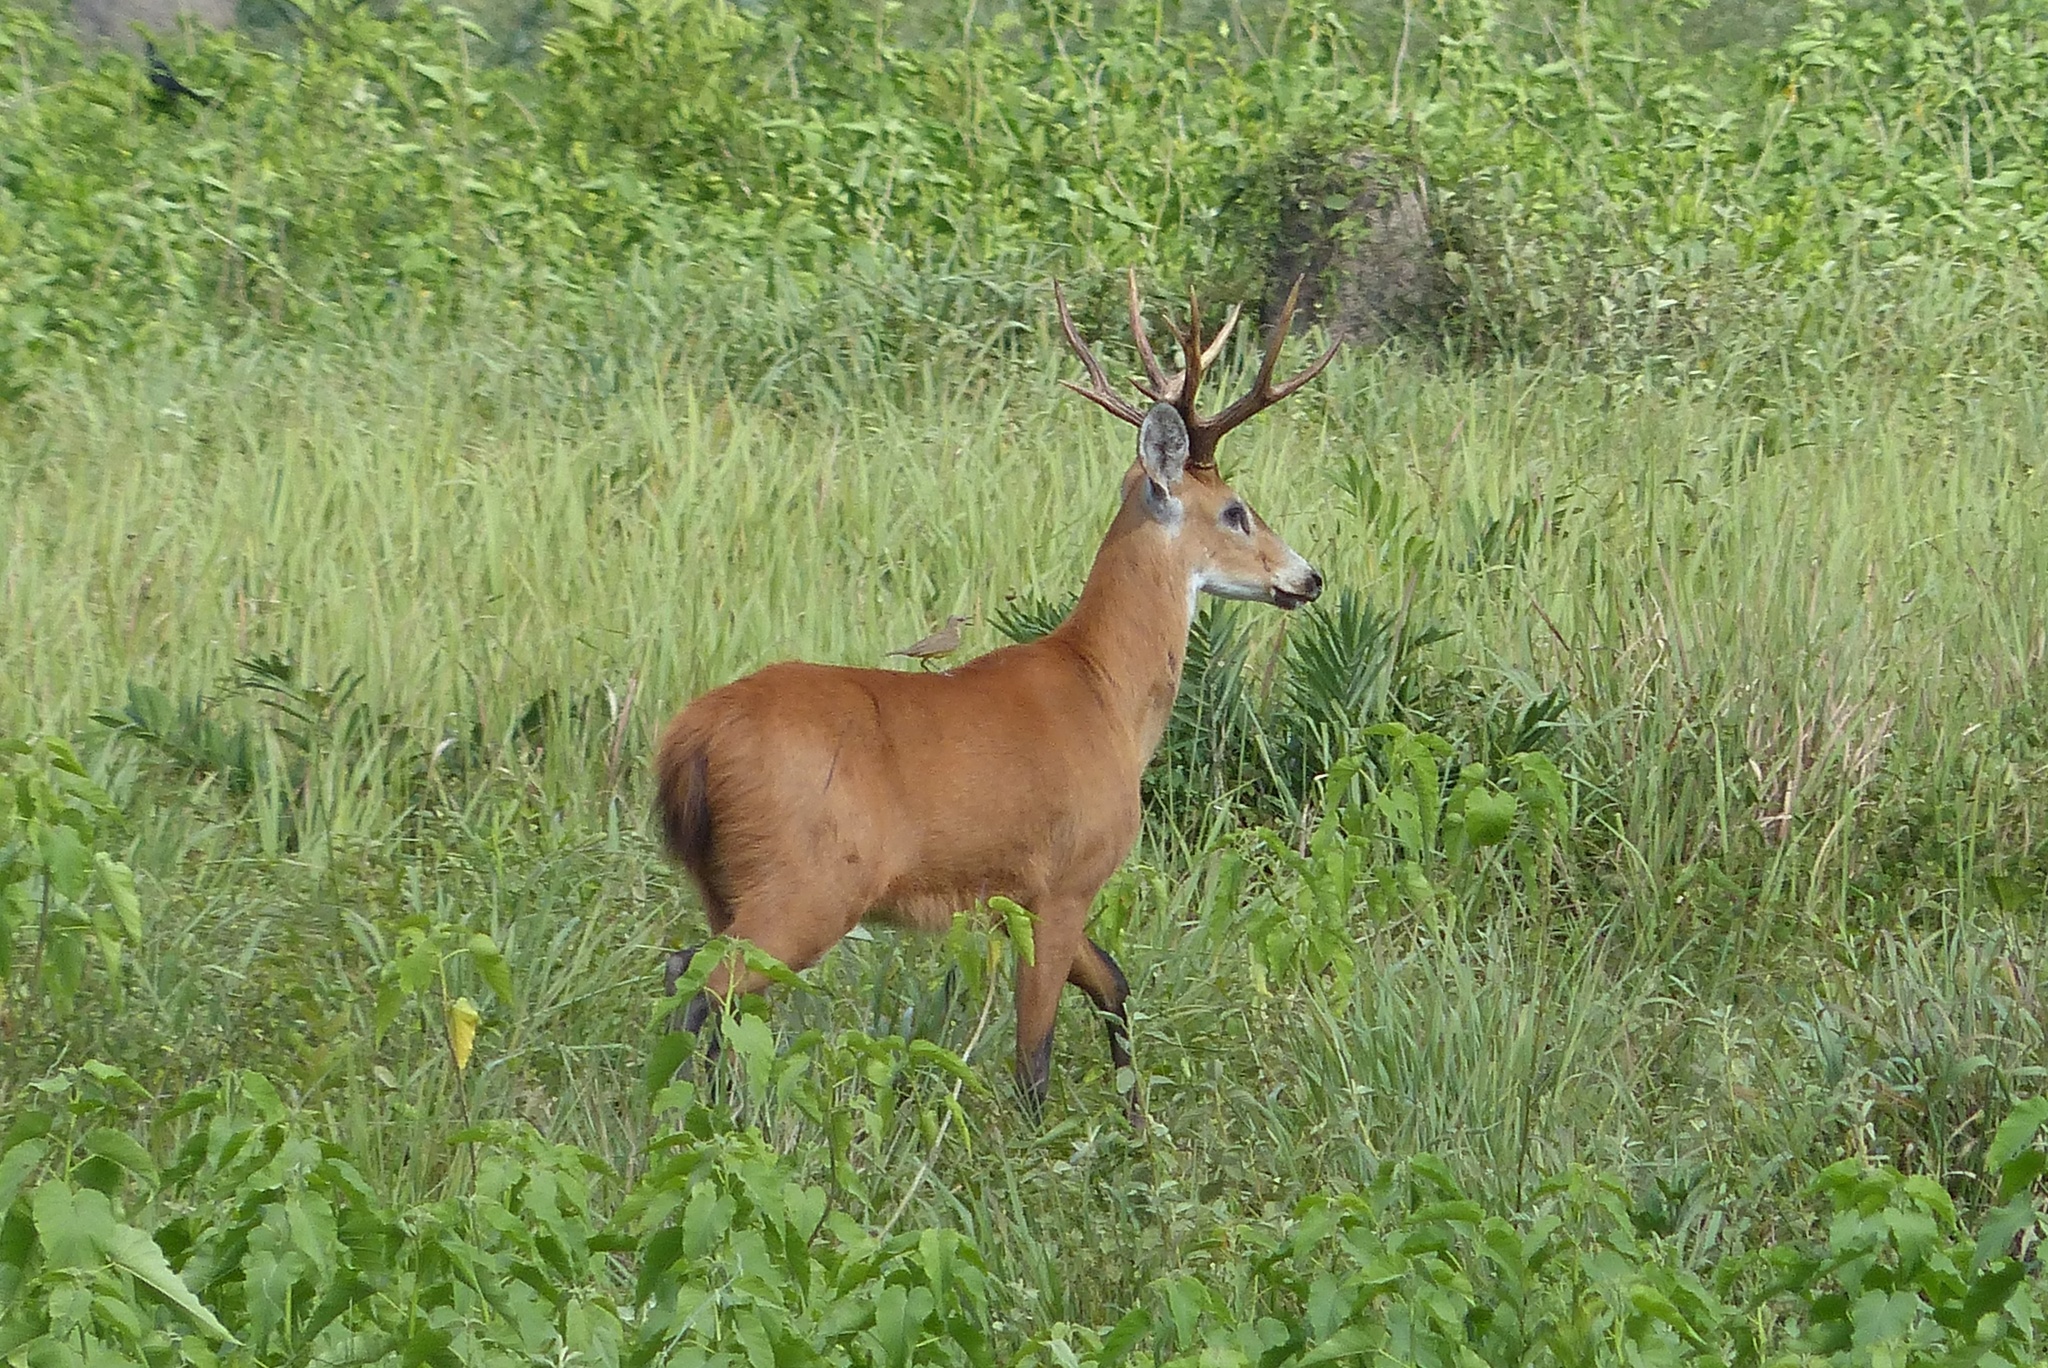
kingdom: Animalia
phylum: Chordata
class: Mammalia
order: Artiodactyla
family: Cervidae
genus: Blastocerus
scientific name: Blastocerus dichotomus
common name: Marsh deer
